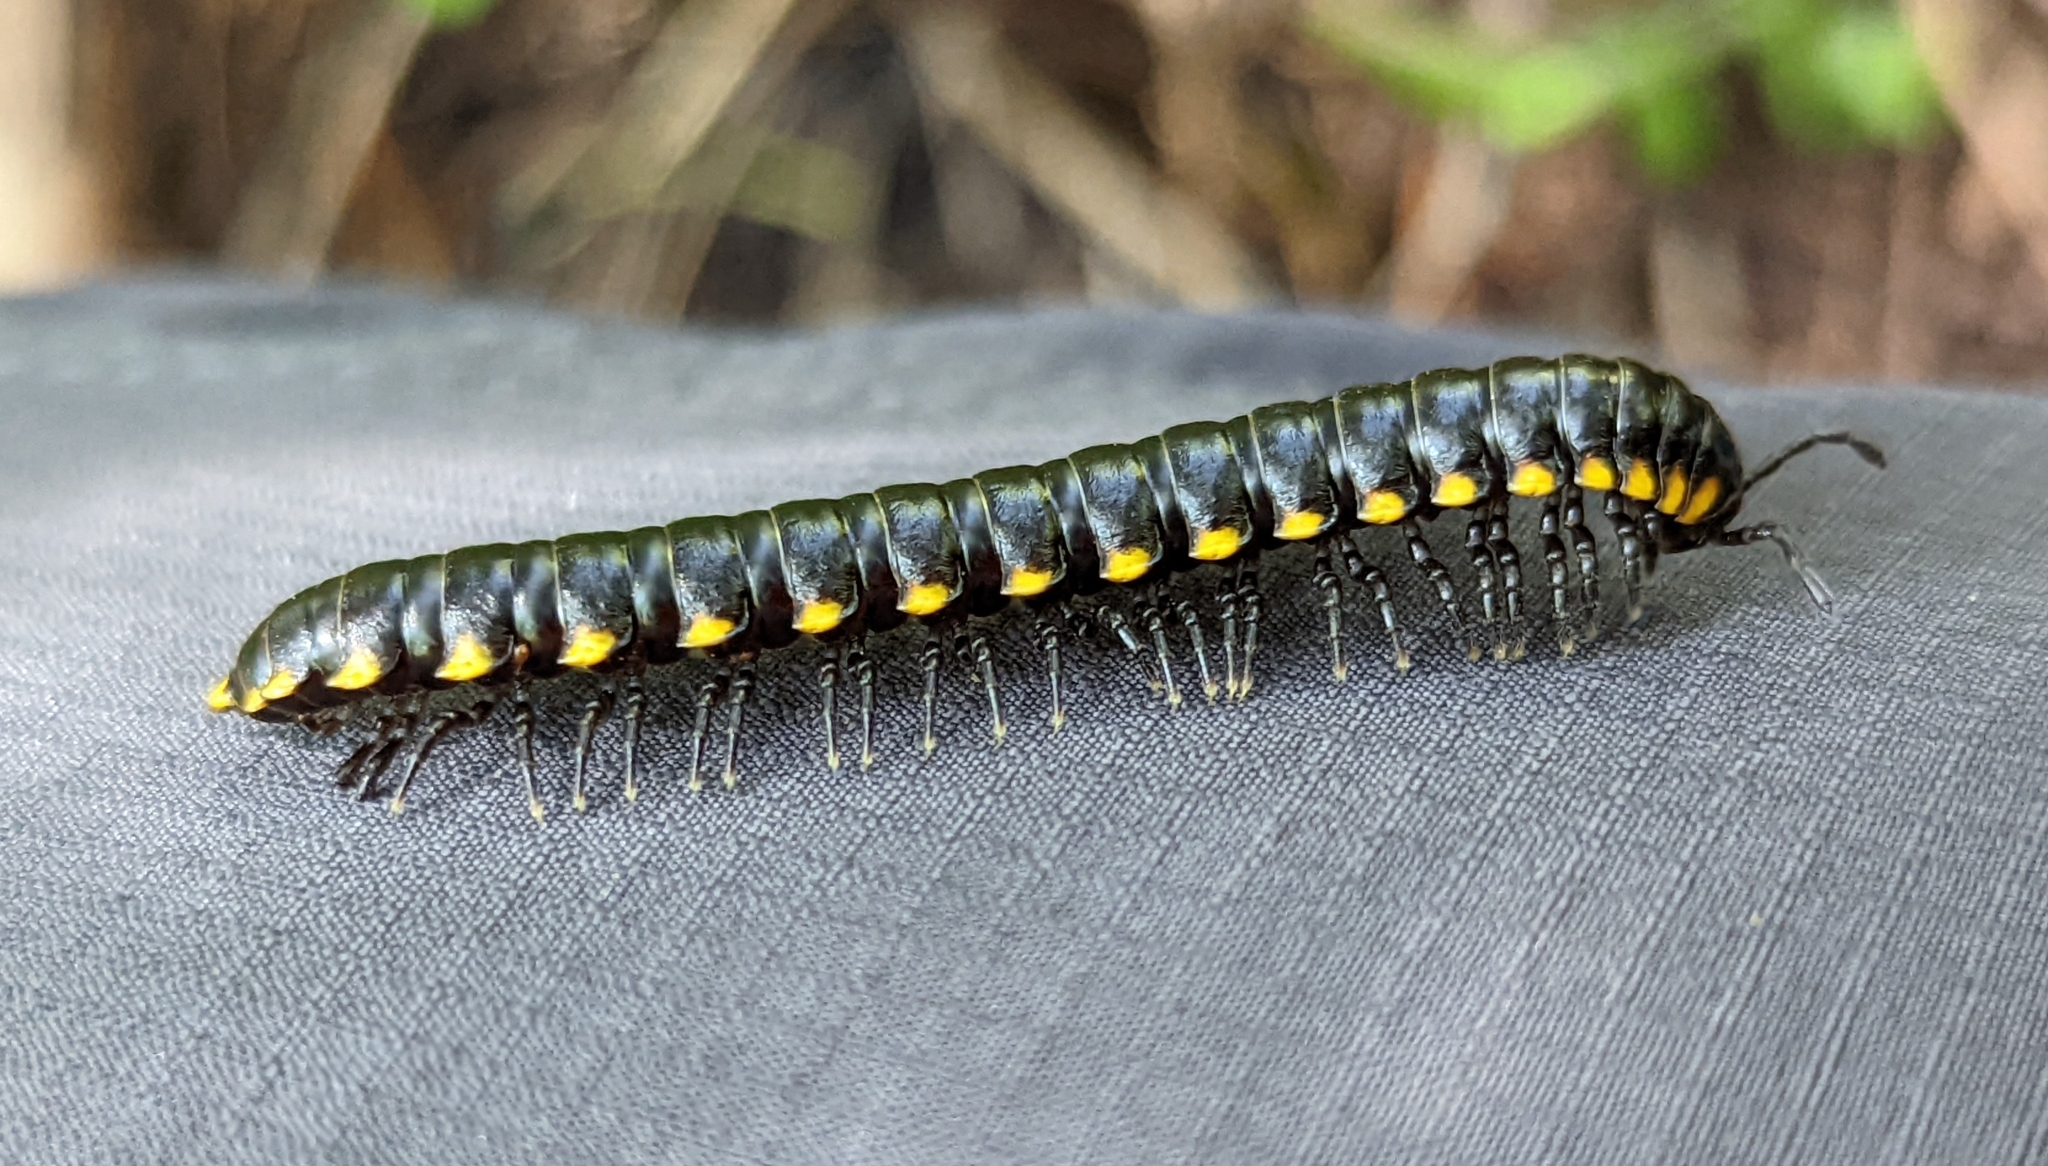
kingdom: Animalia
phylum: Arthropoda
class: Diplopoda
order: Polydesmida
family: Xystodesmidae
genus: Harpaphe
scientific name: Harpaphe haydeniana
